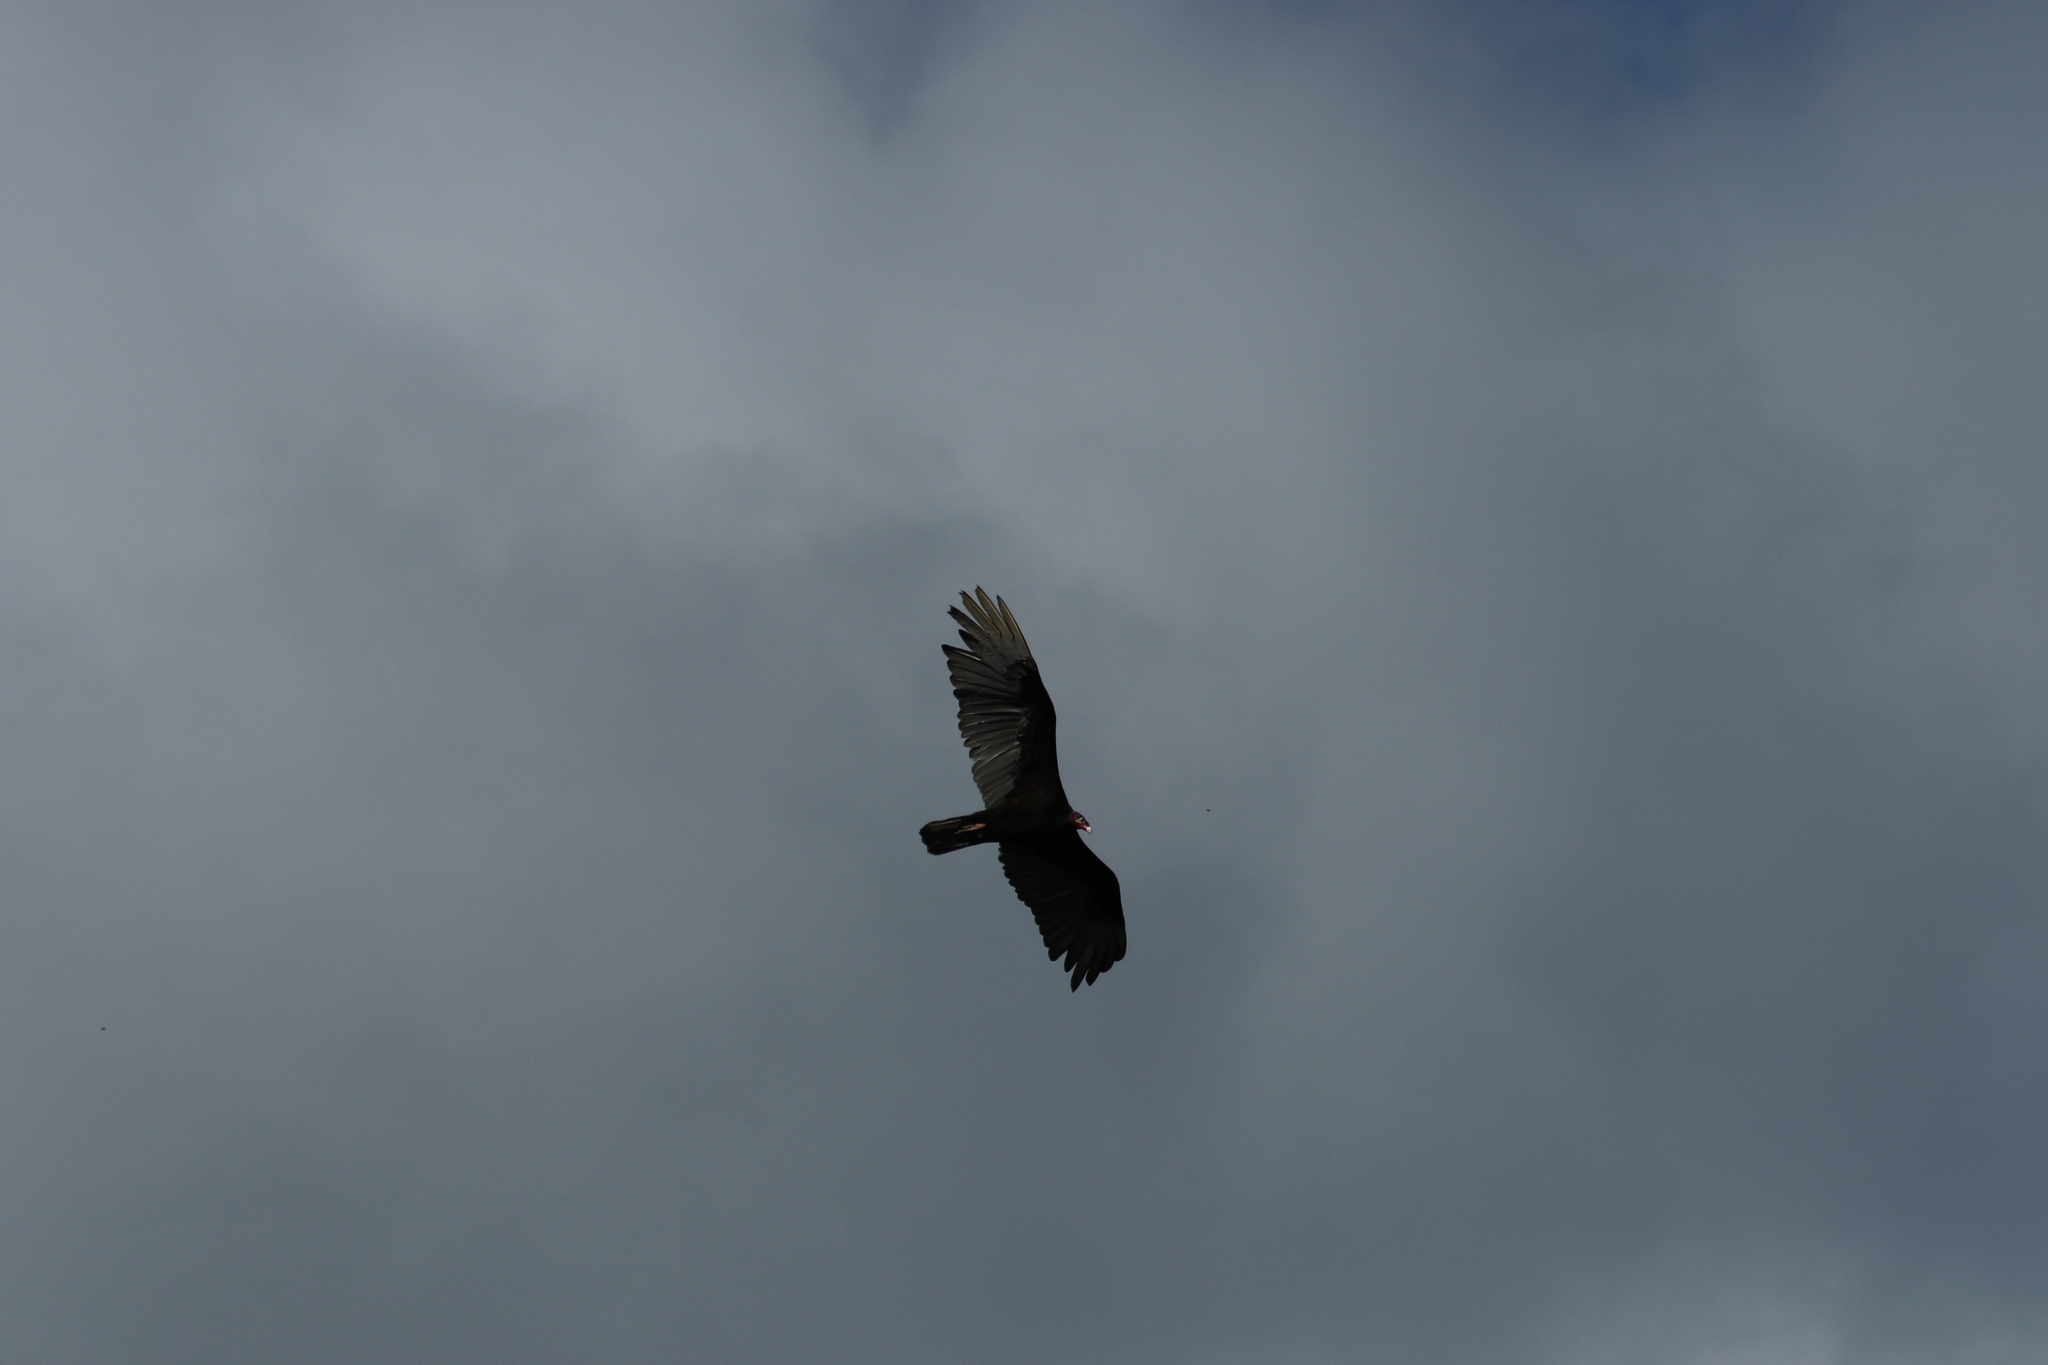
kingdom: Animalia
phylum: Chordata
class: Aves
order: Accipitriformes
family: Cathartidae
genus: Cathartes
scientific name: Cathartes aura
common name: Turkey vulture
